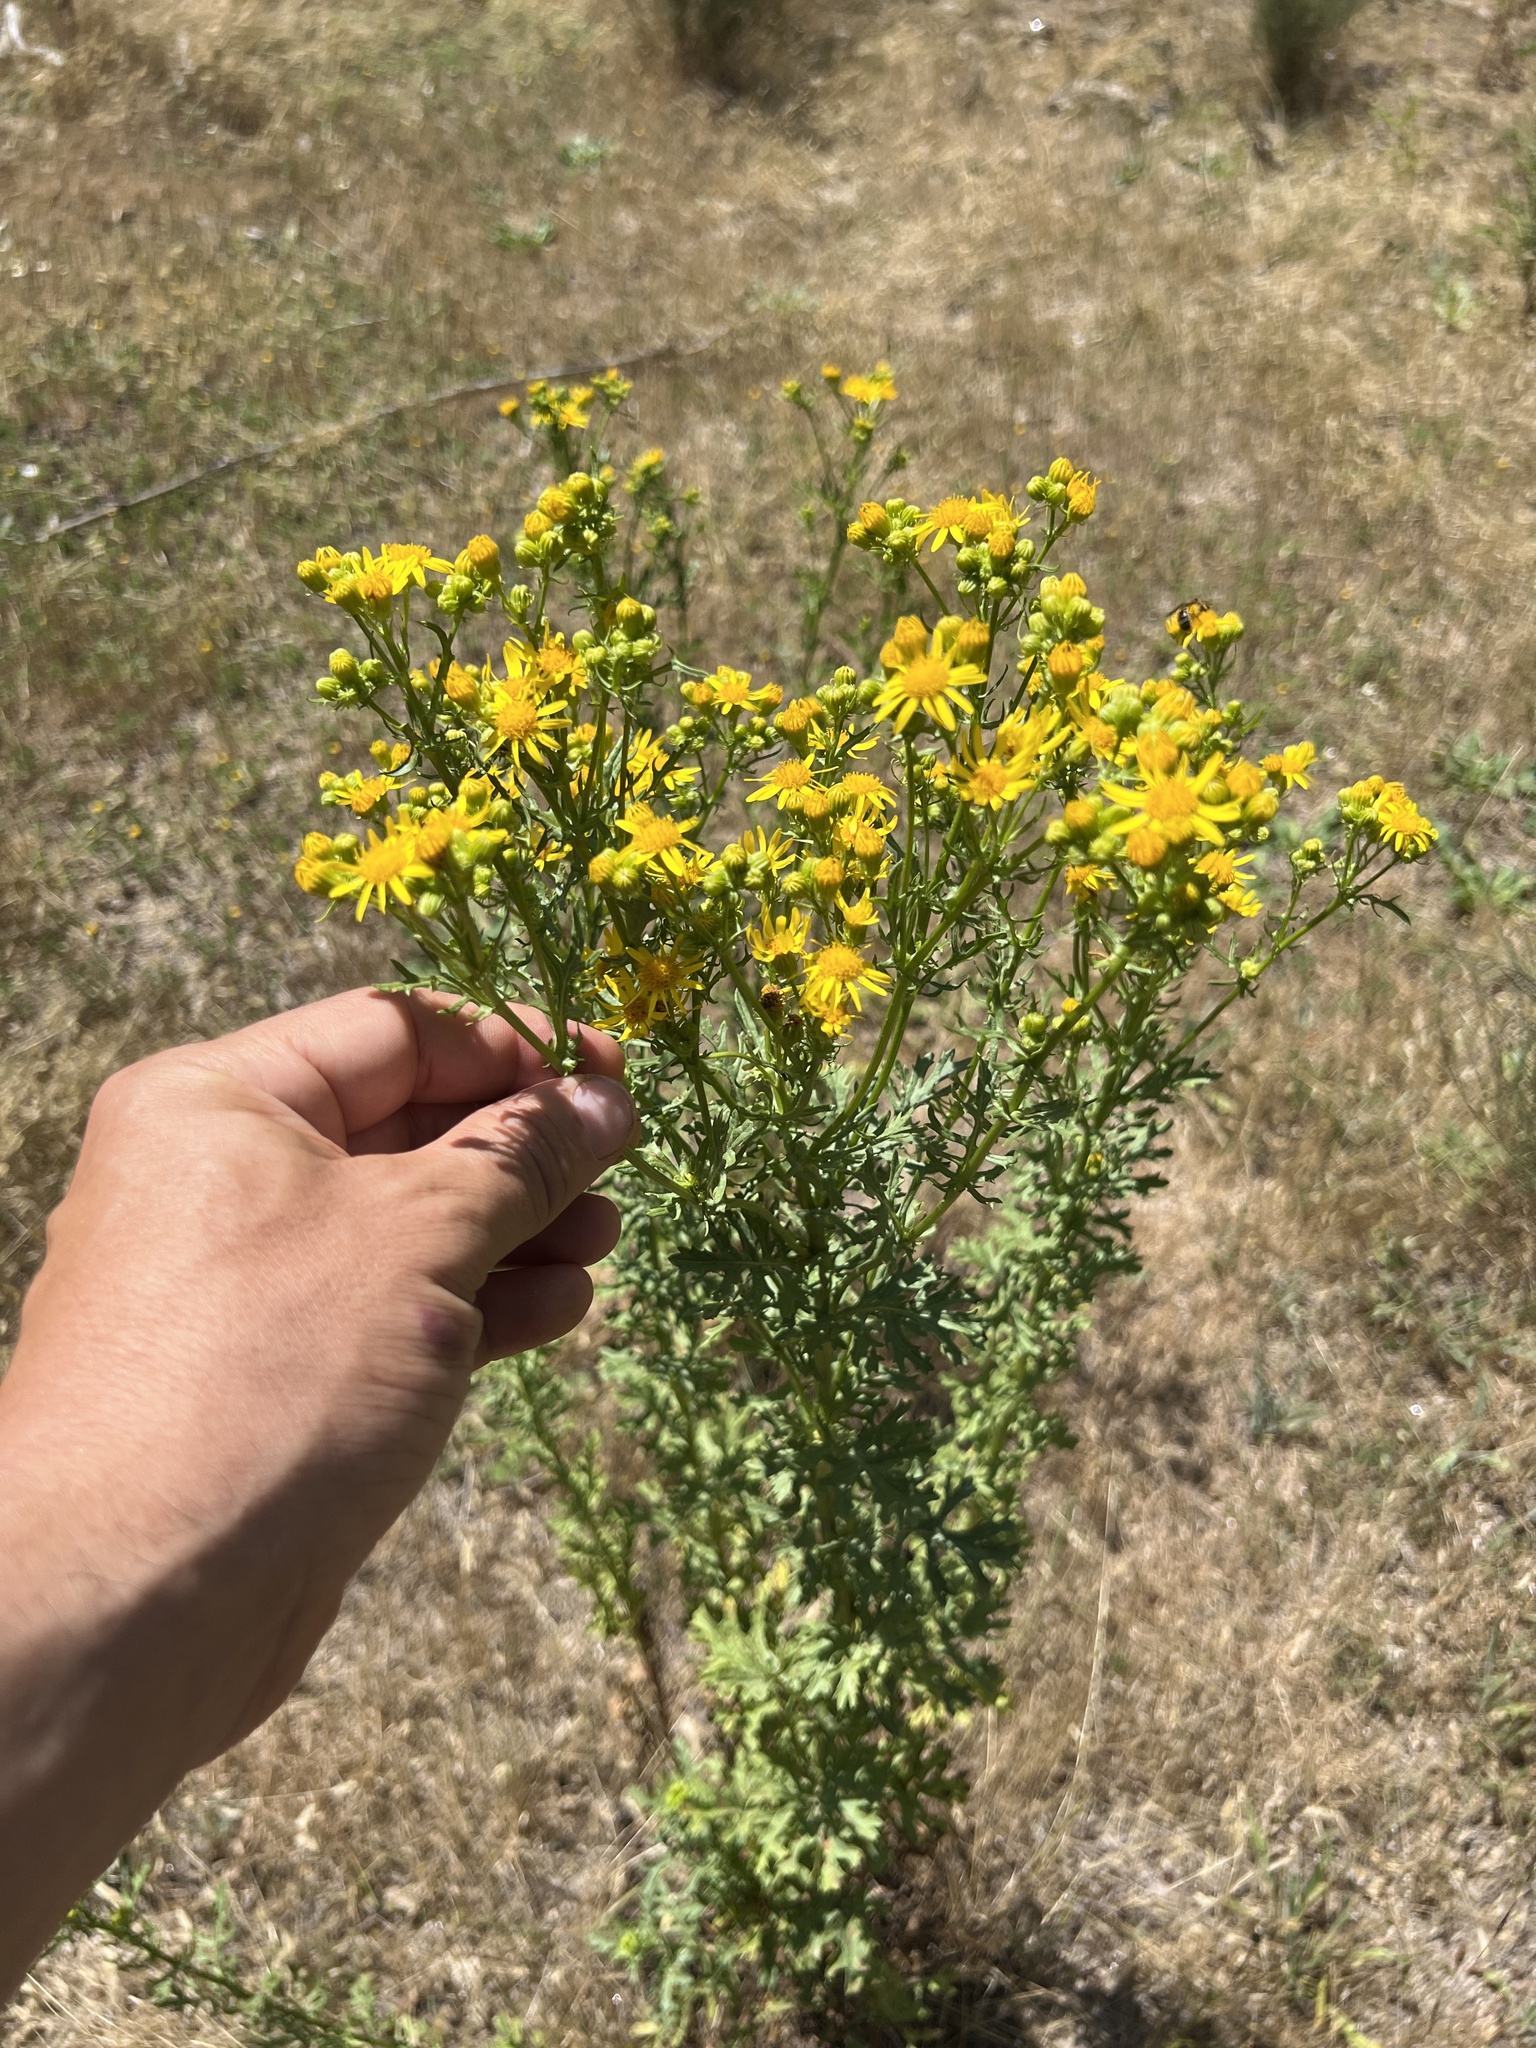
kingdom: Plantae
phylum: Tracheophyta
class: Magnoliopsida
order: Asterales
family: Asteraceae
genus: Jacobaea
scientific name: Jacobaea vulgaris
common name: Stinking willie
